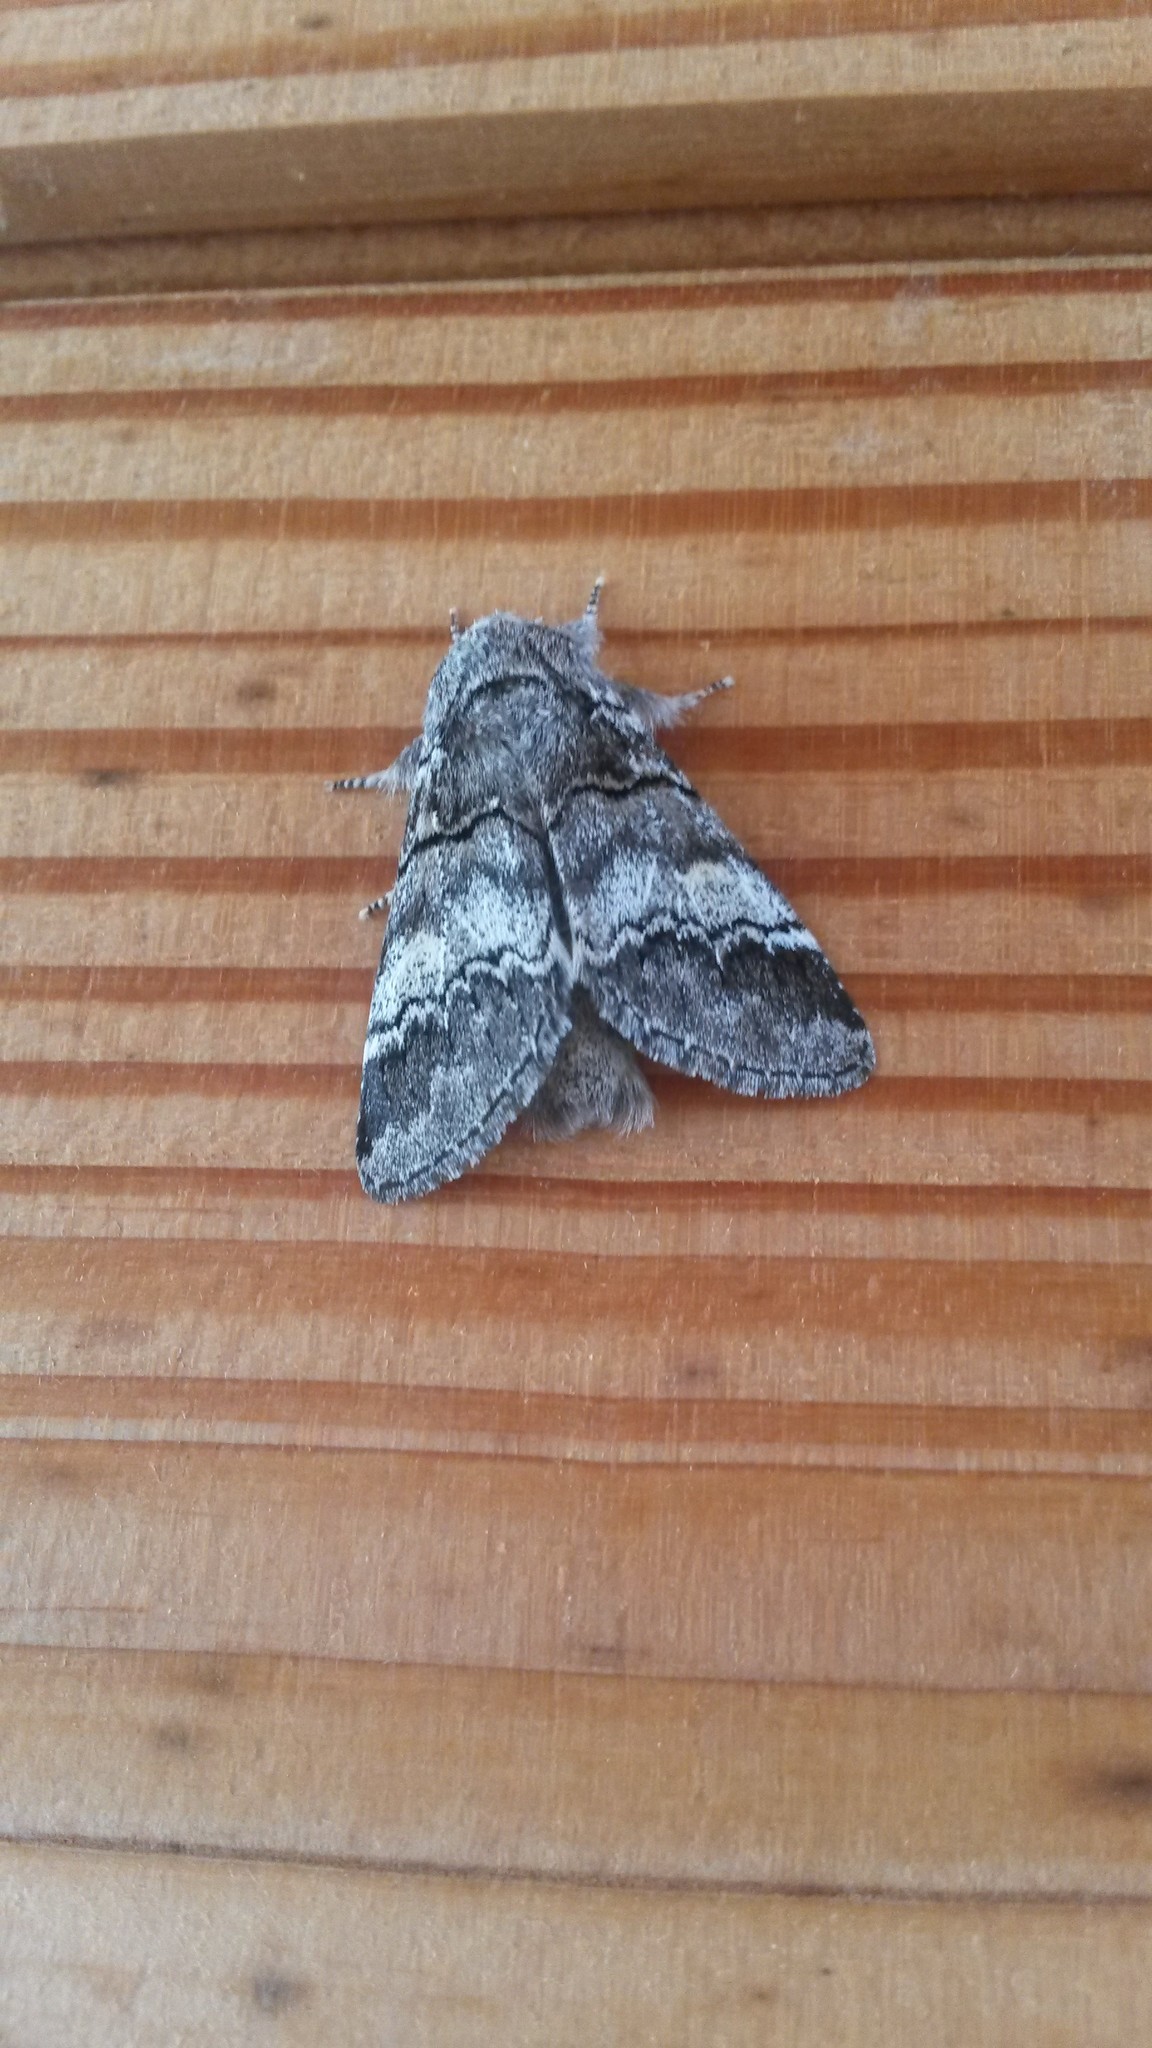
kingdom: Animalia
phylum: Arthropoda
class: Insecta
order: Lepidoptera
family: Notodontidae
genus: Drymonia
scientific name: Drymonia querna
